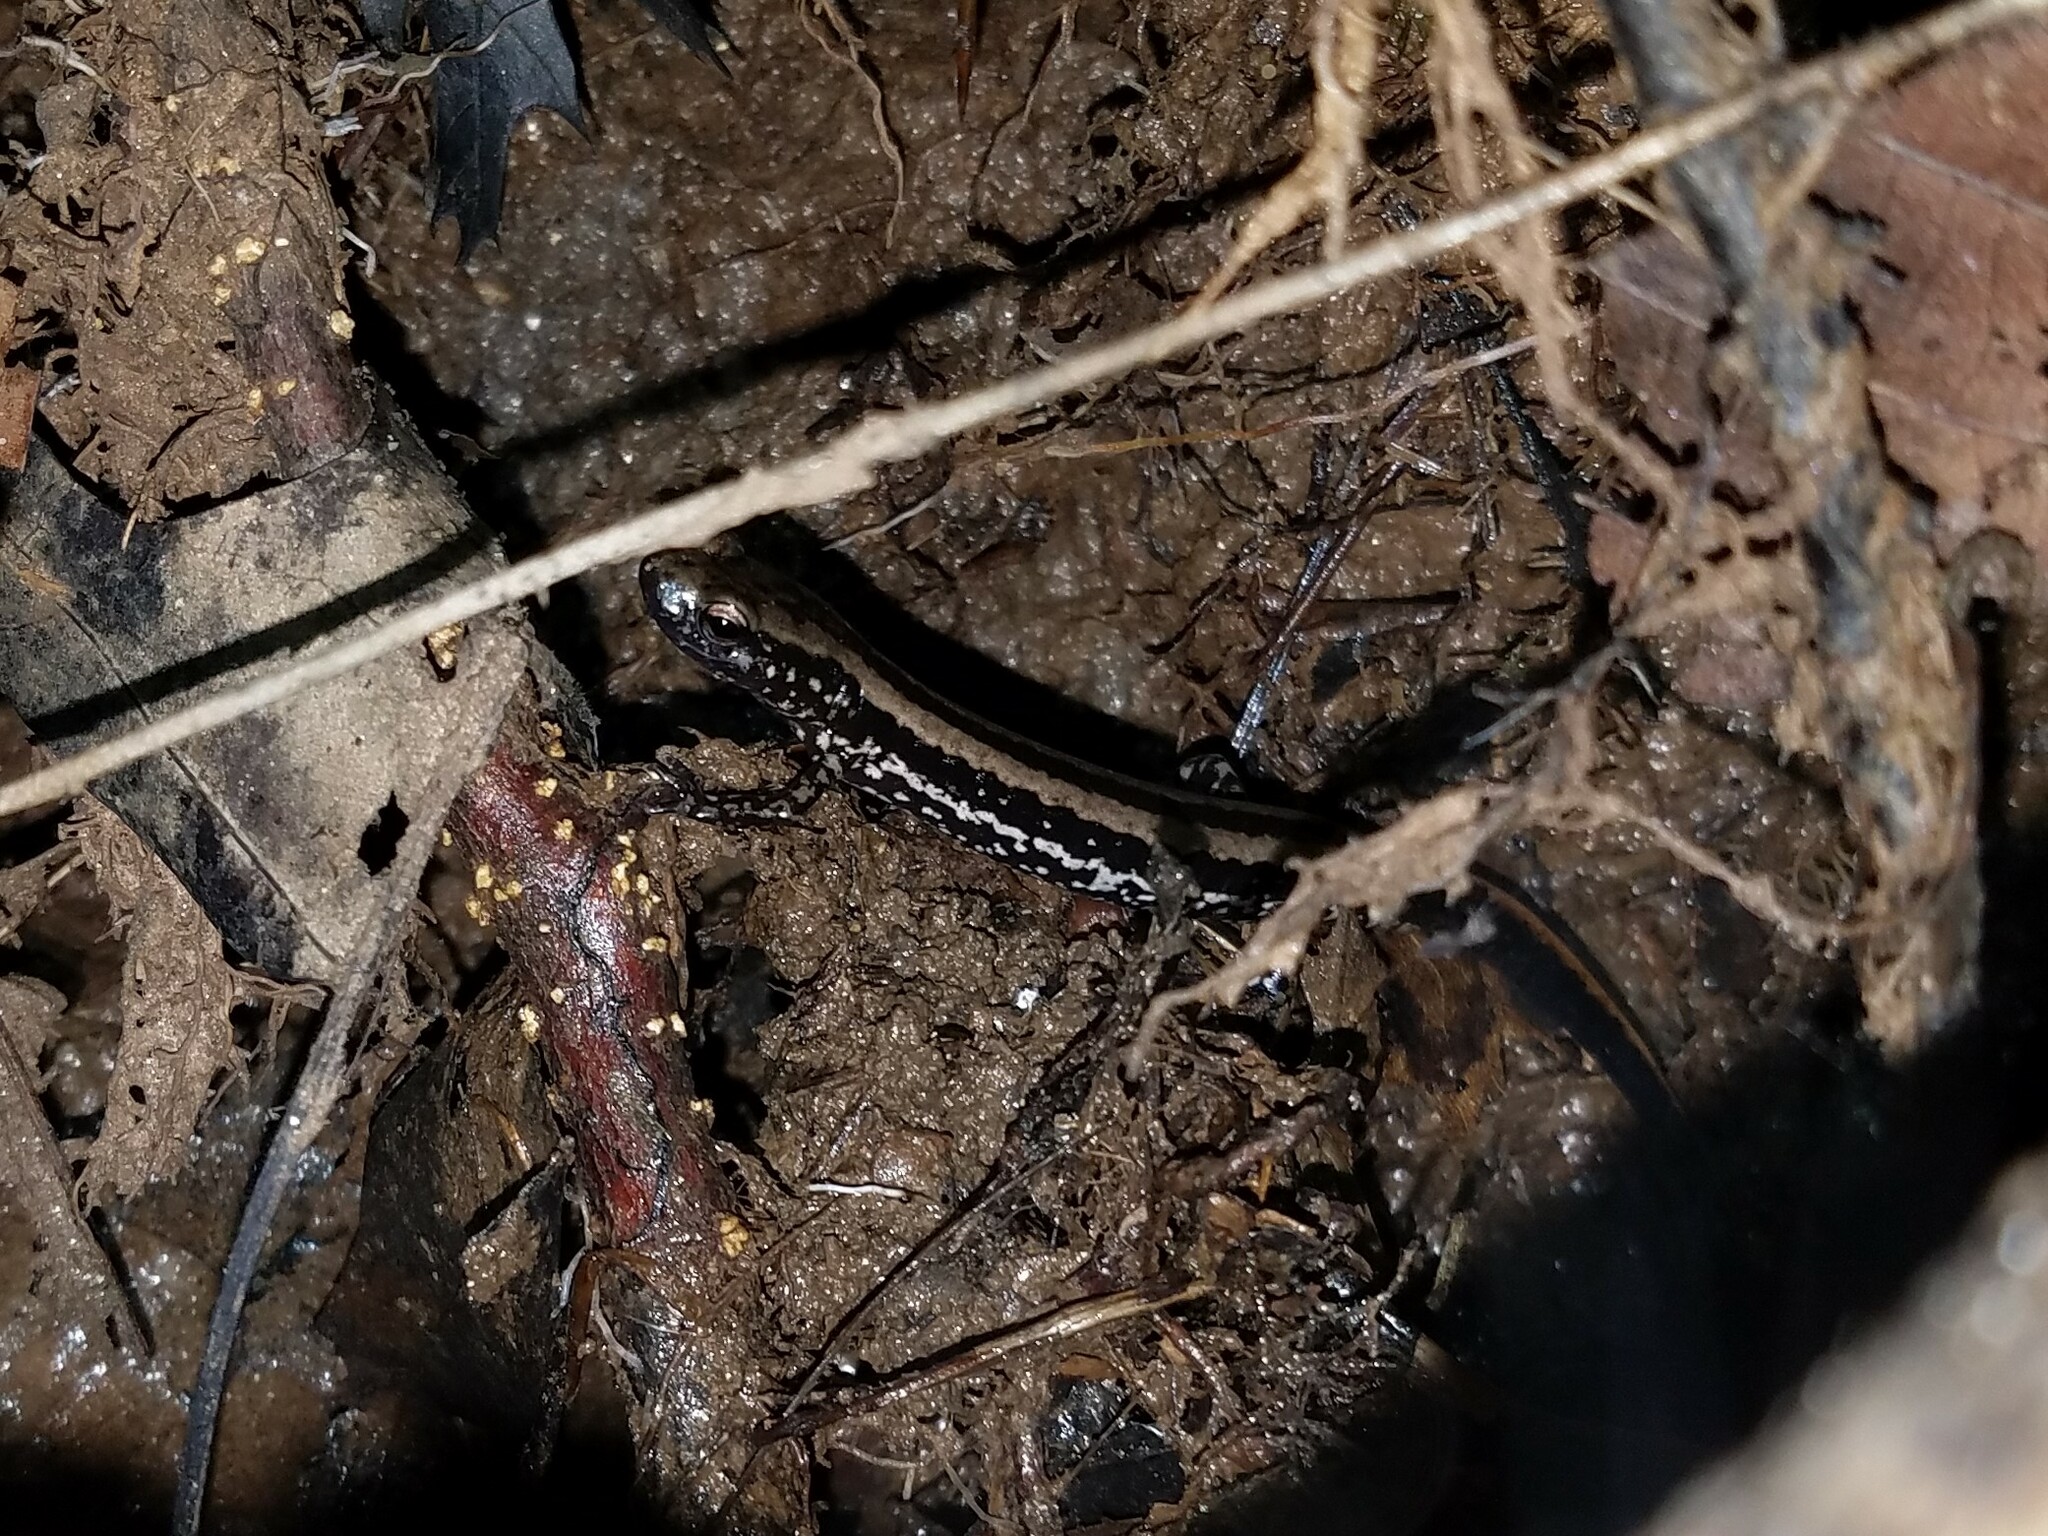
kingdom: Animalia
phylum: Chordata
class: Amphibia
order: Caudata
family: Plethodontidae
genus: Eurycea
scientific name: Eurycea guttolineata
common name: Three-lined salamander
